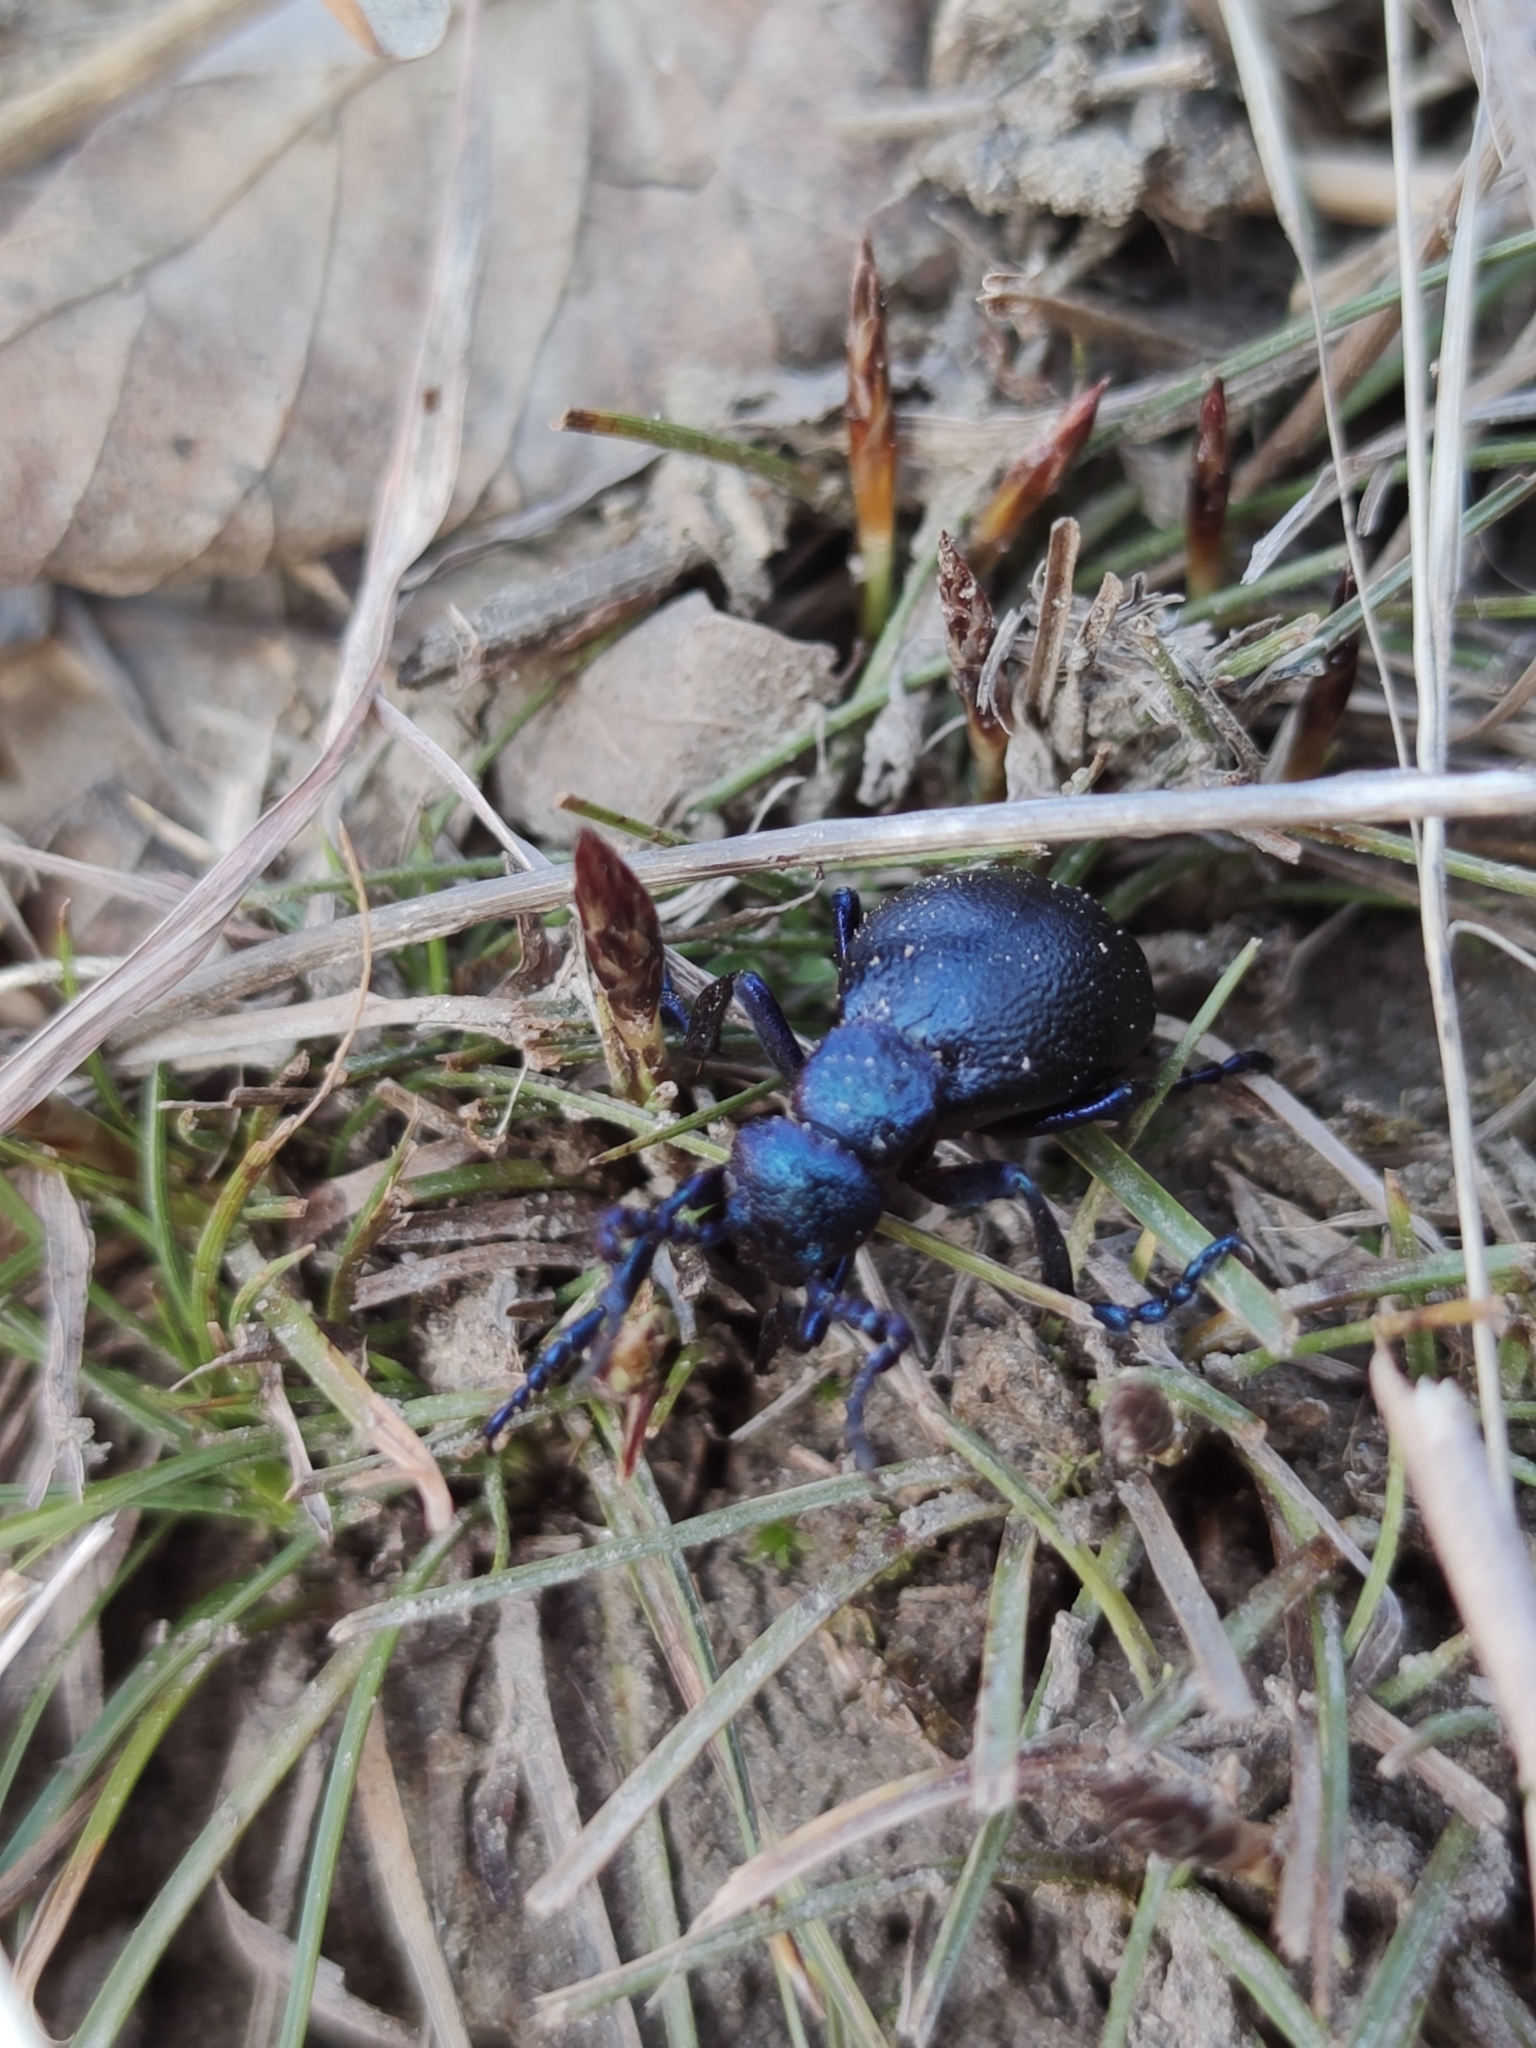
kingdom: Animalia
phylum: Arthropoda
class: Insecta
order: Coleoptera
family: Meloidae
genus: Meloe
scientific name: Meloe proscarabaeus
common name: Black oil-beetle
